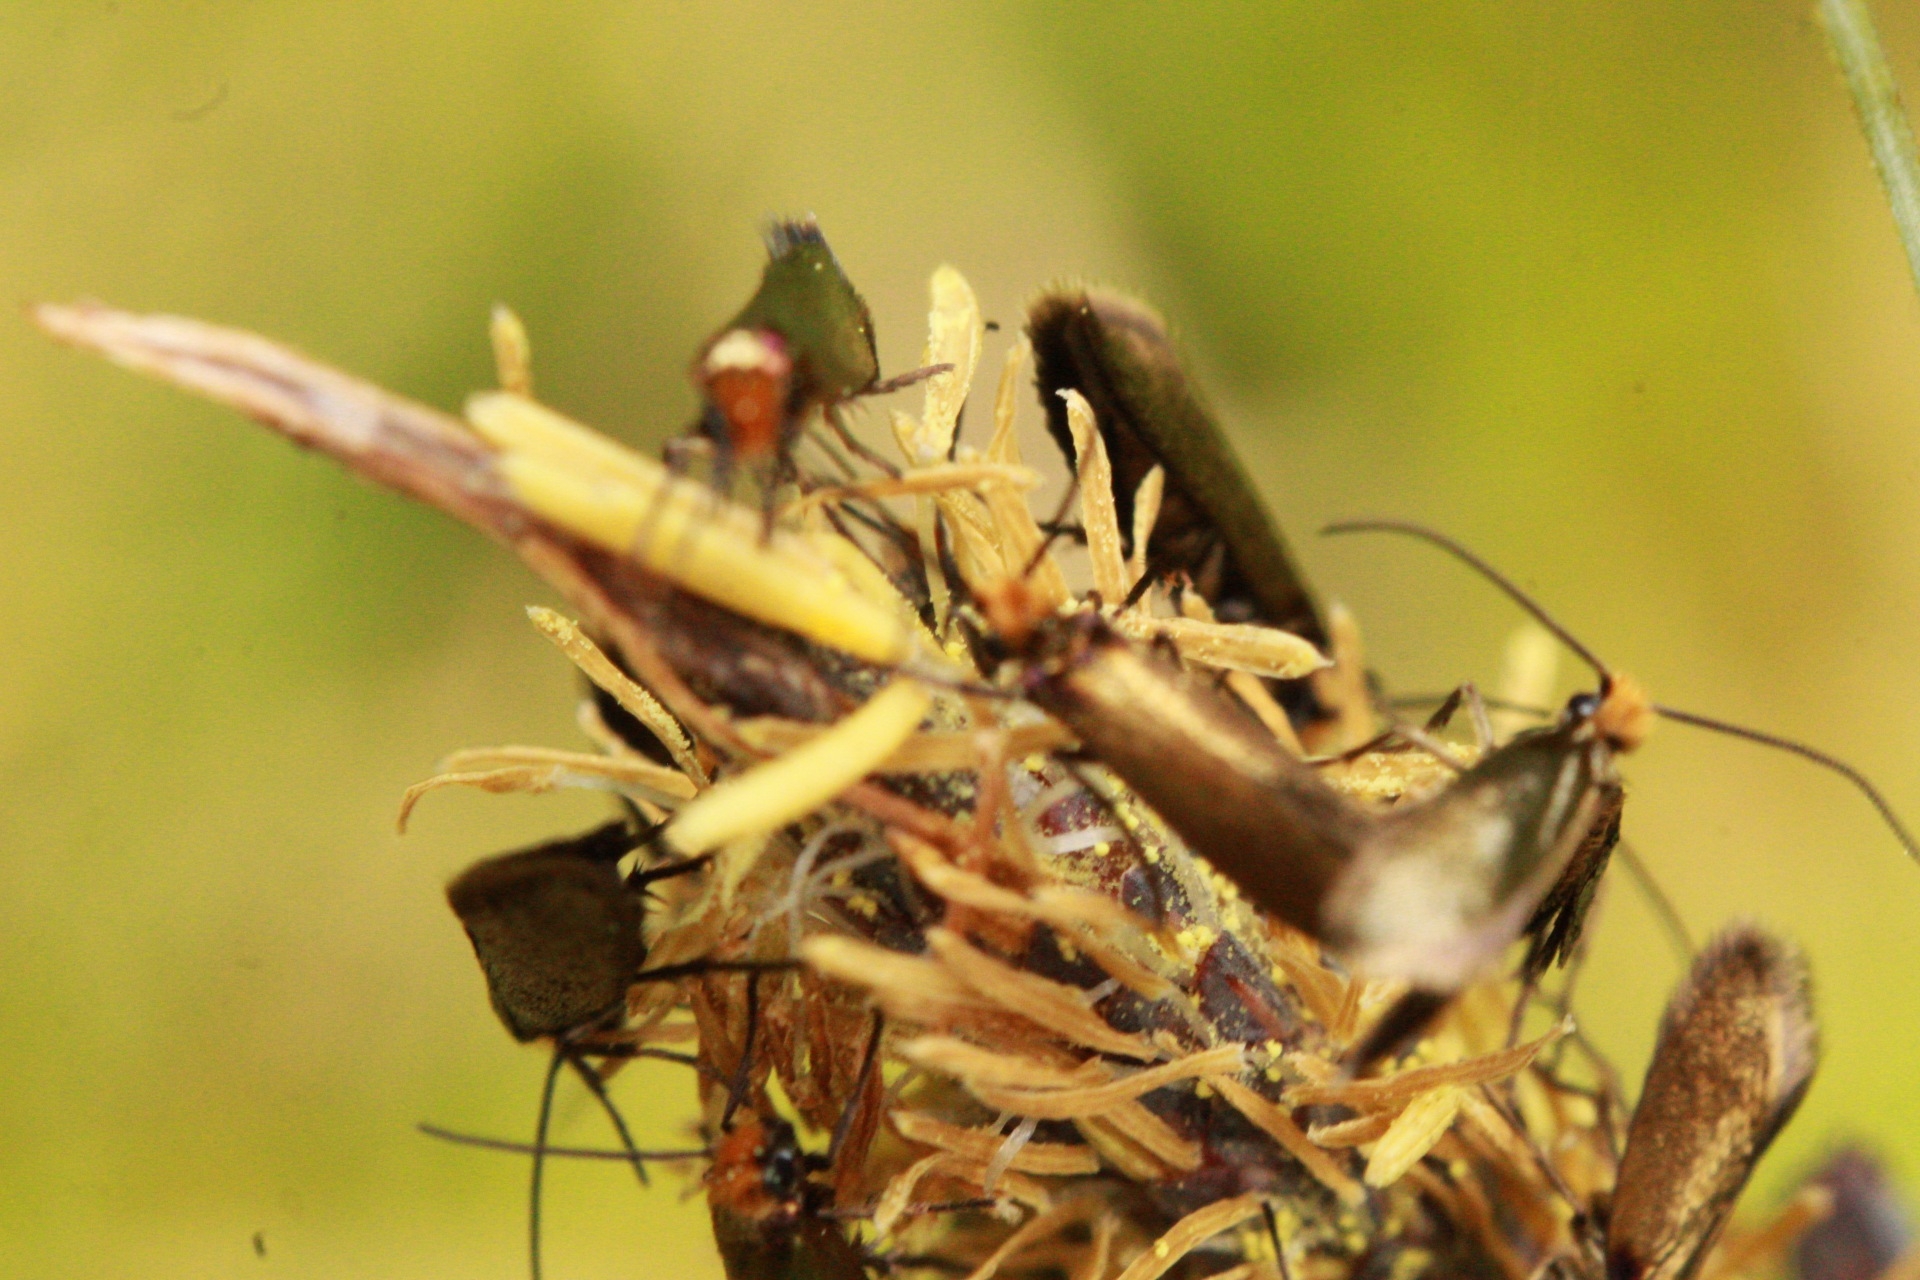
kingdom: Animalia
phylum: Arthropoda
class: Insecta
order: Lepidoptera
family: Micropterigidae
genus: Micropterix
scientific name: Micropterix calthella
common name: Plain gold
